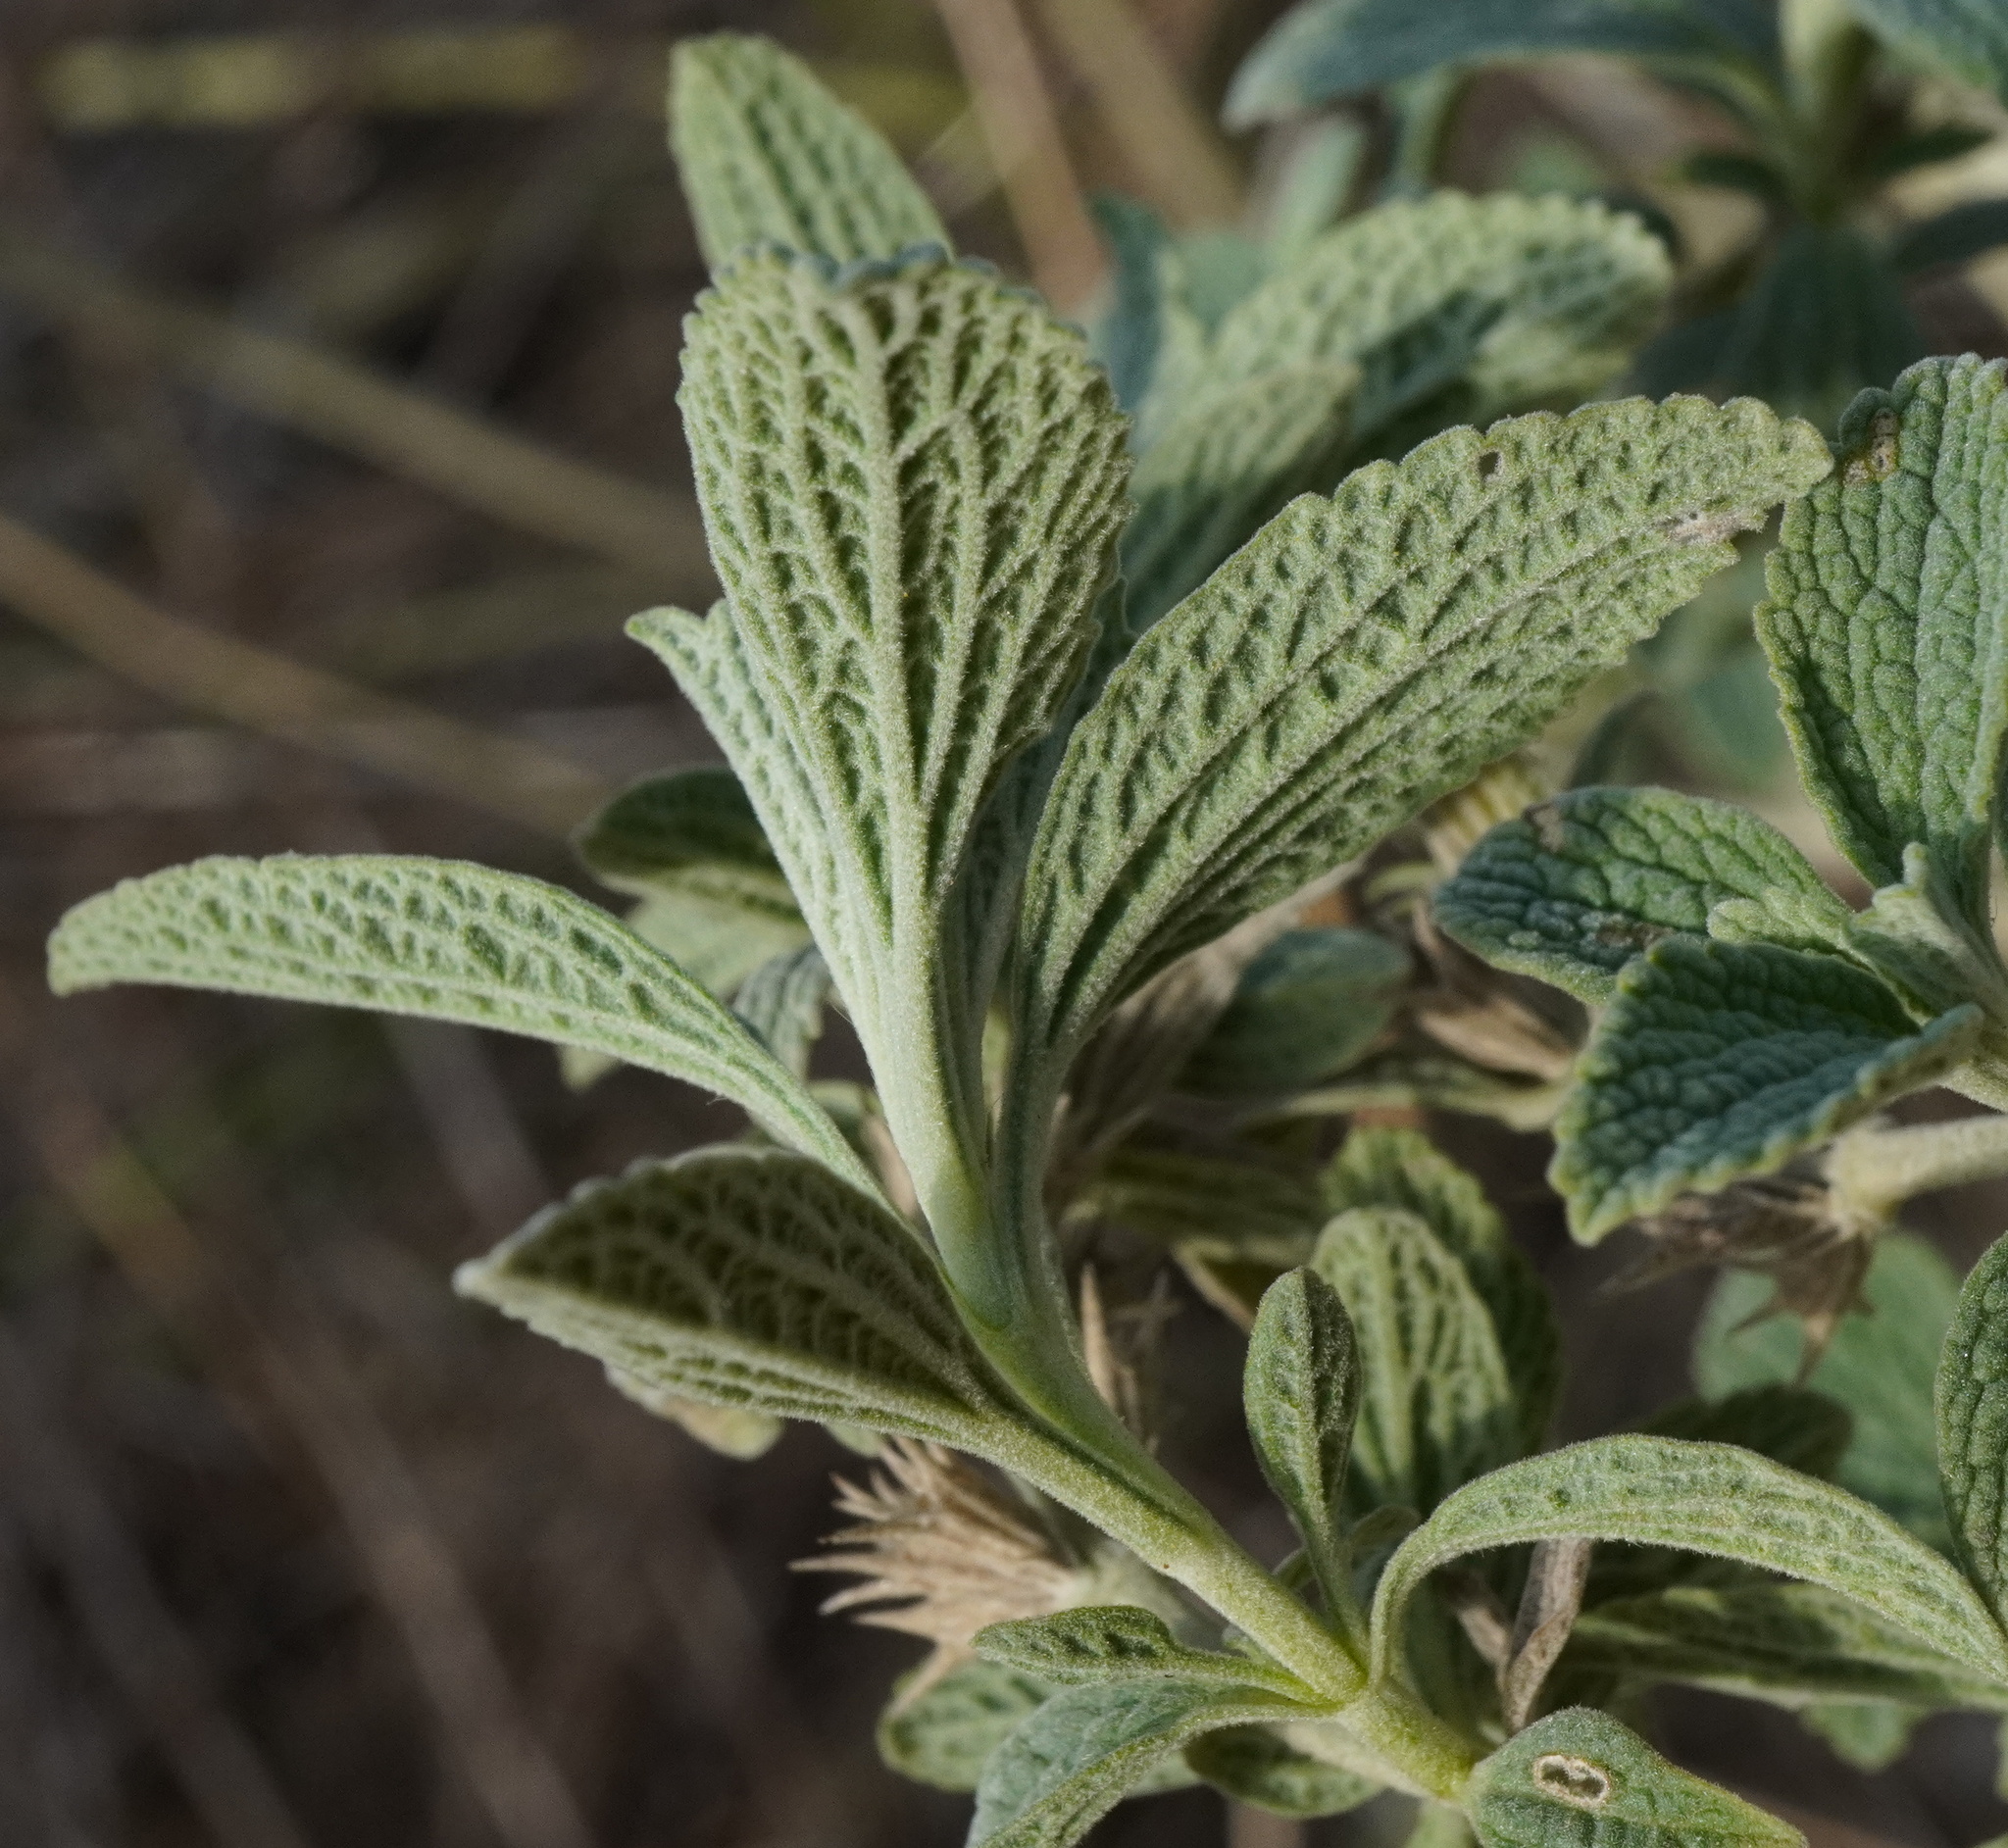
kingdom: Plantae
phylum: Tracheophyta
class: Magnoliopsida
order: Lamiales
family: Lamiaceae
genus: Marrubium
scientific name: Marrubium peregrinum
